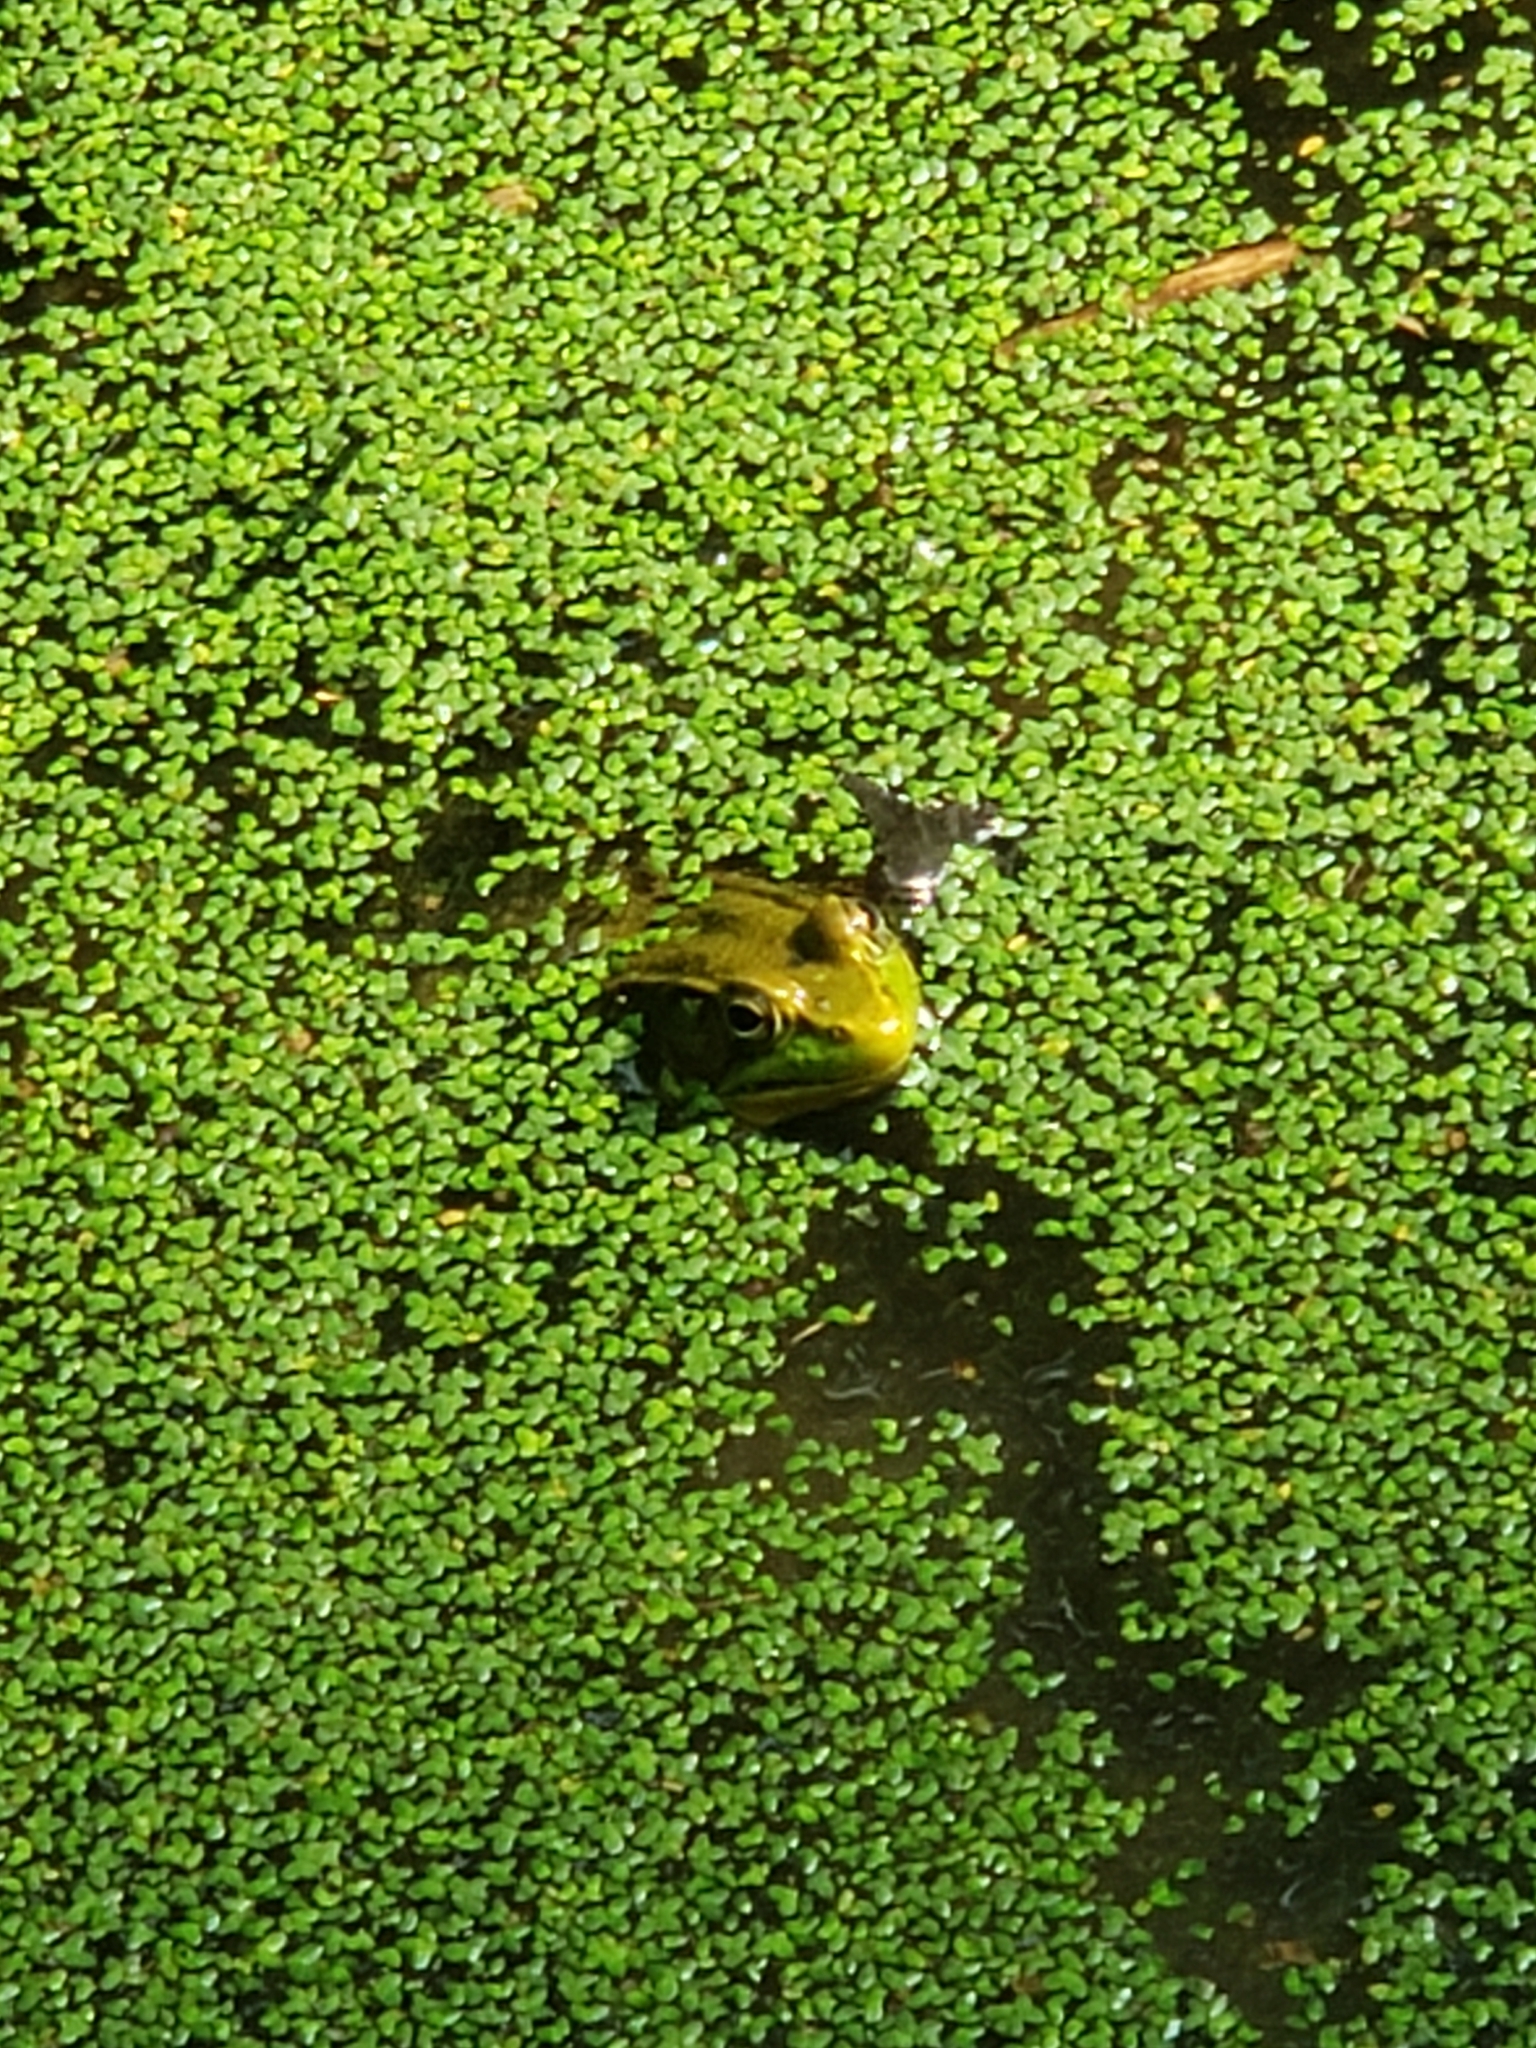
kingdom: Animalia
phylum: Chordata
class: Amphibia
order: Anura
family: Ranidae
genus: Lithobates
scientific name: Lithobates clamitans
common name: Green frog
